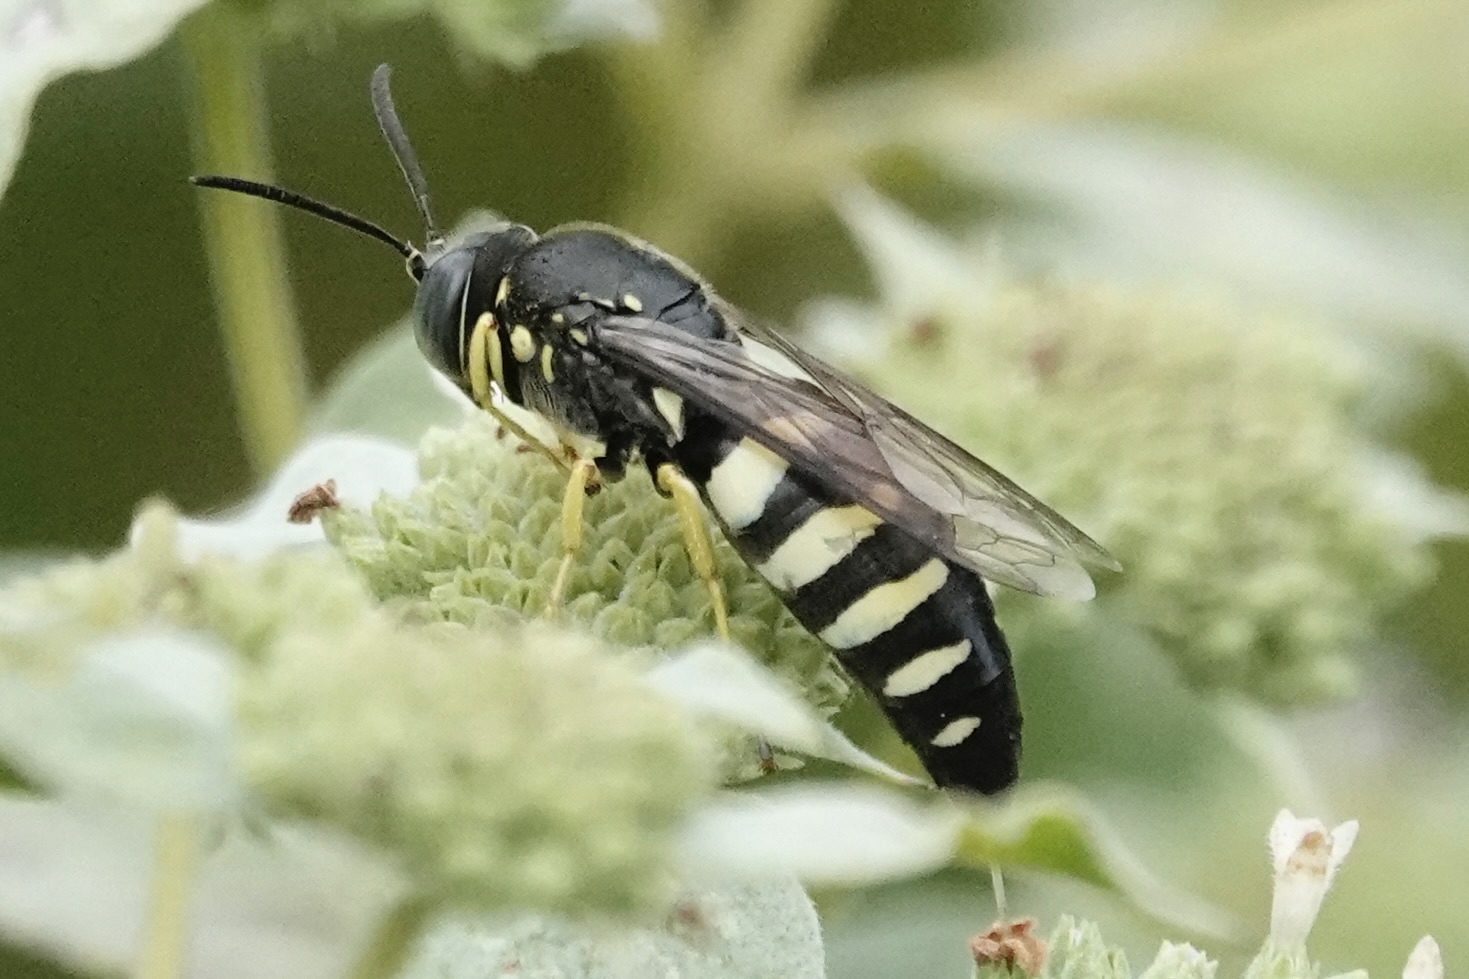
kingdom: Animalia
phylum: Arthropoda
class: Insecta
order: Hymenoptera
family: Crabronidae
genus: Bicyrtes
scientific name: Bicyrtes quadrifasciatus
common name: Four-banded stink bug hunter wasp
